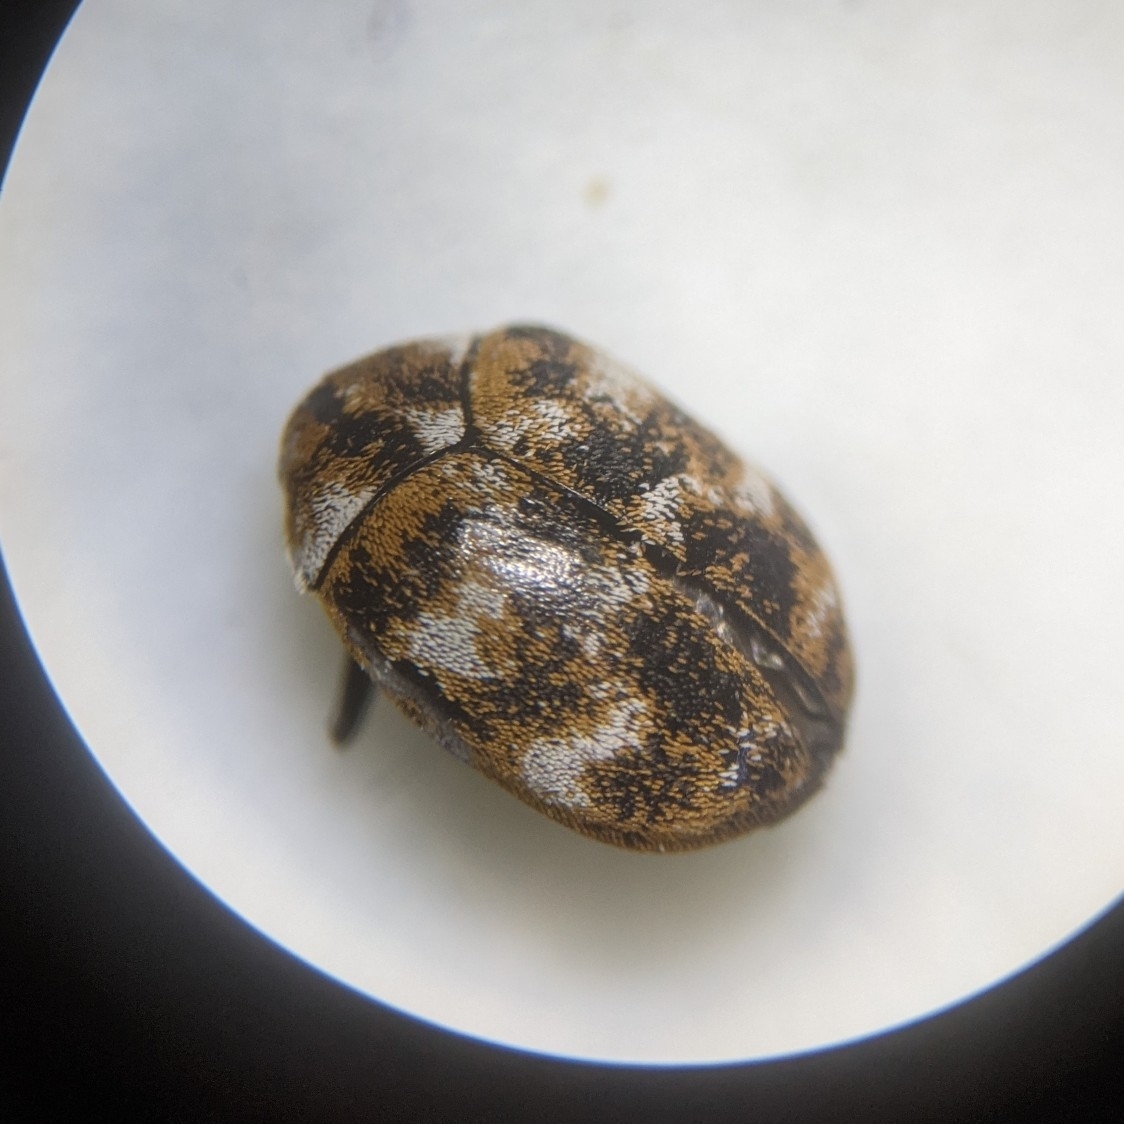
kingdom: Animalia
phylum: Arthropoda
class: Insecta
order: Coleoptera
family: Dermestidae
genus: Anthrenus
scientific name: Anthrenus verbasci
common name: Varied carpet beetle
